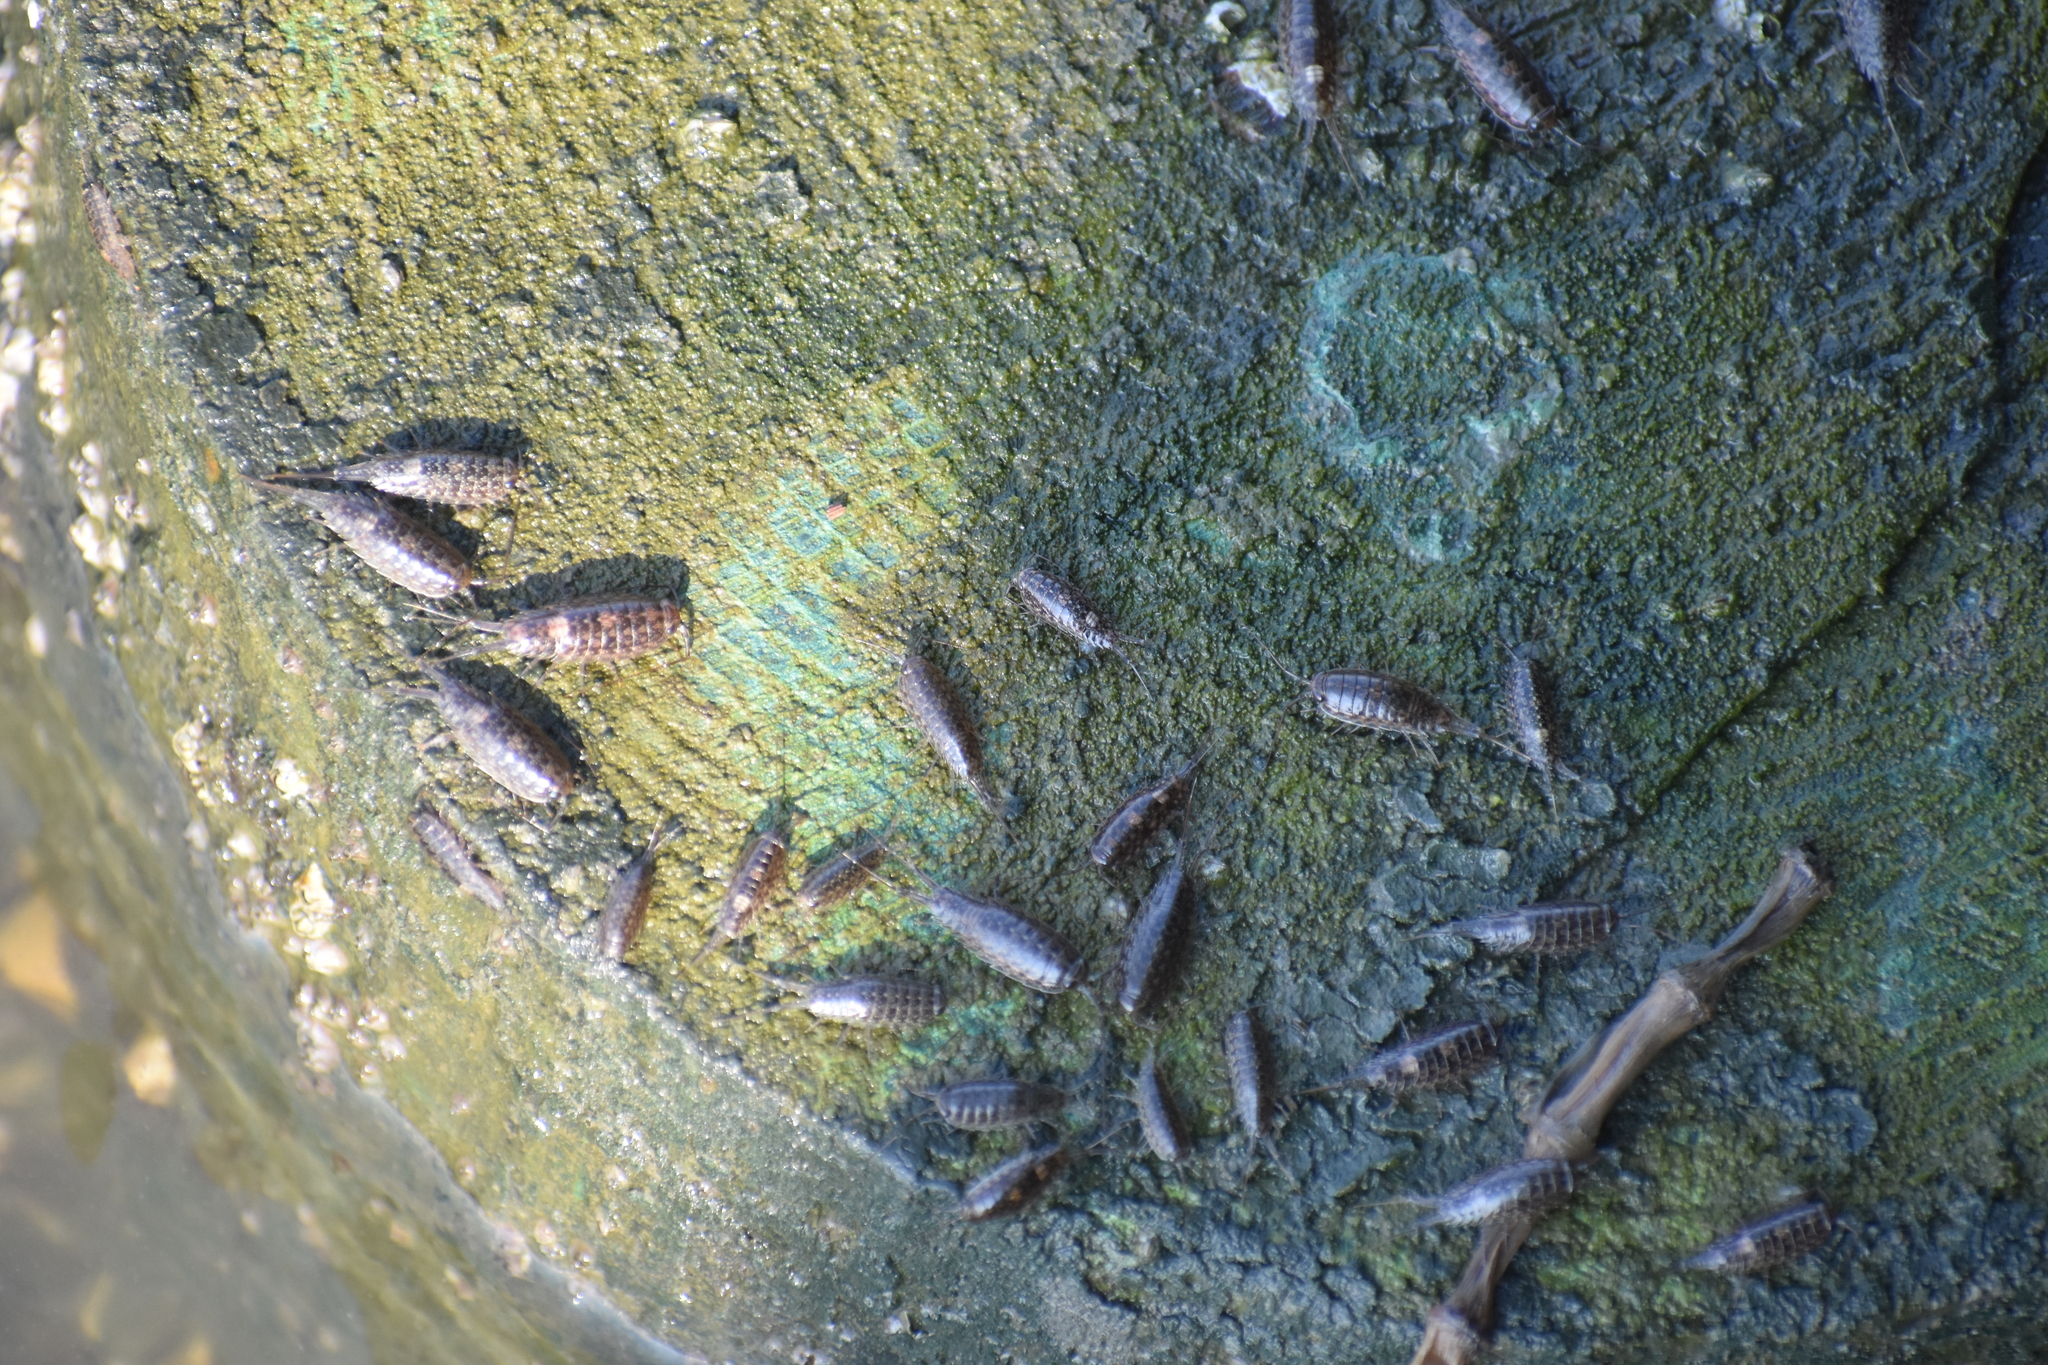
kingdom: Animalia
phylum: Arthropoda
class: Malacostraca
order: Isopoda
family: Ligiidae
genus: Ligia
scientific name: Ligia exotica
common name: Wharf roach
